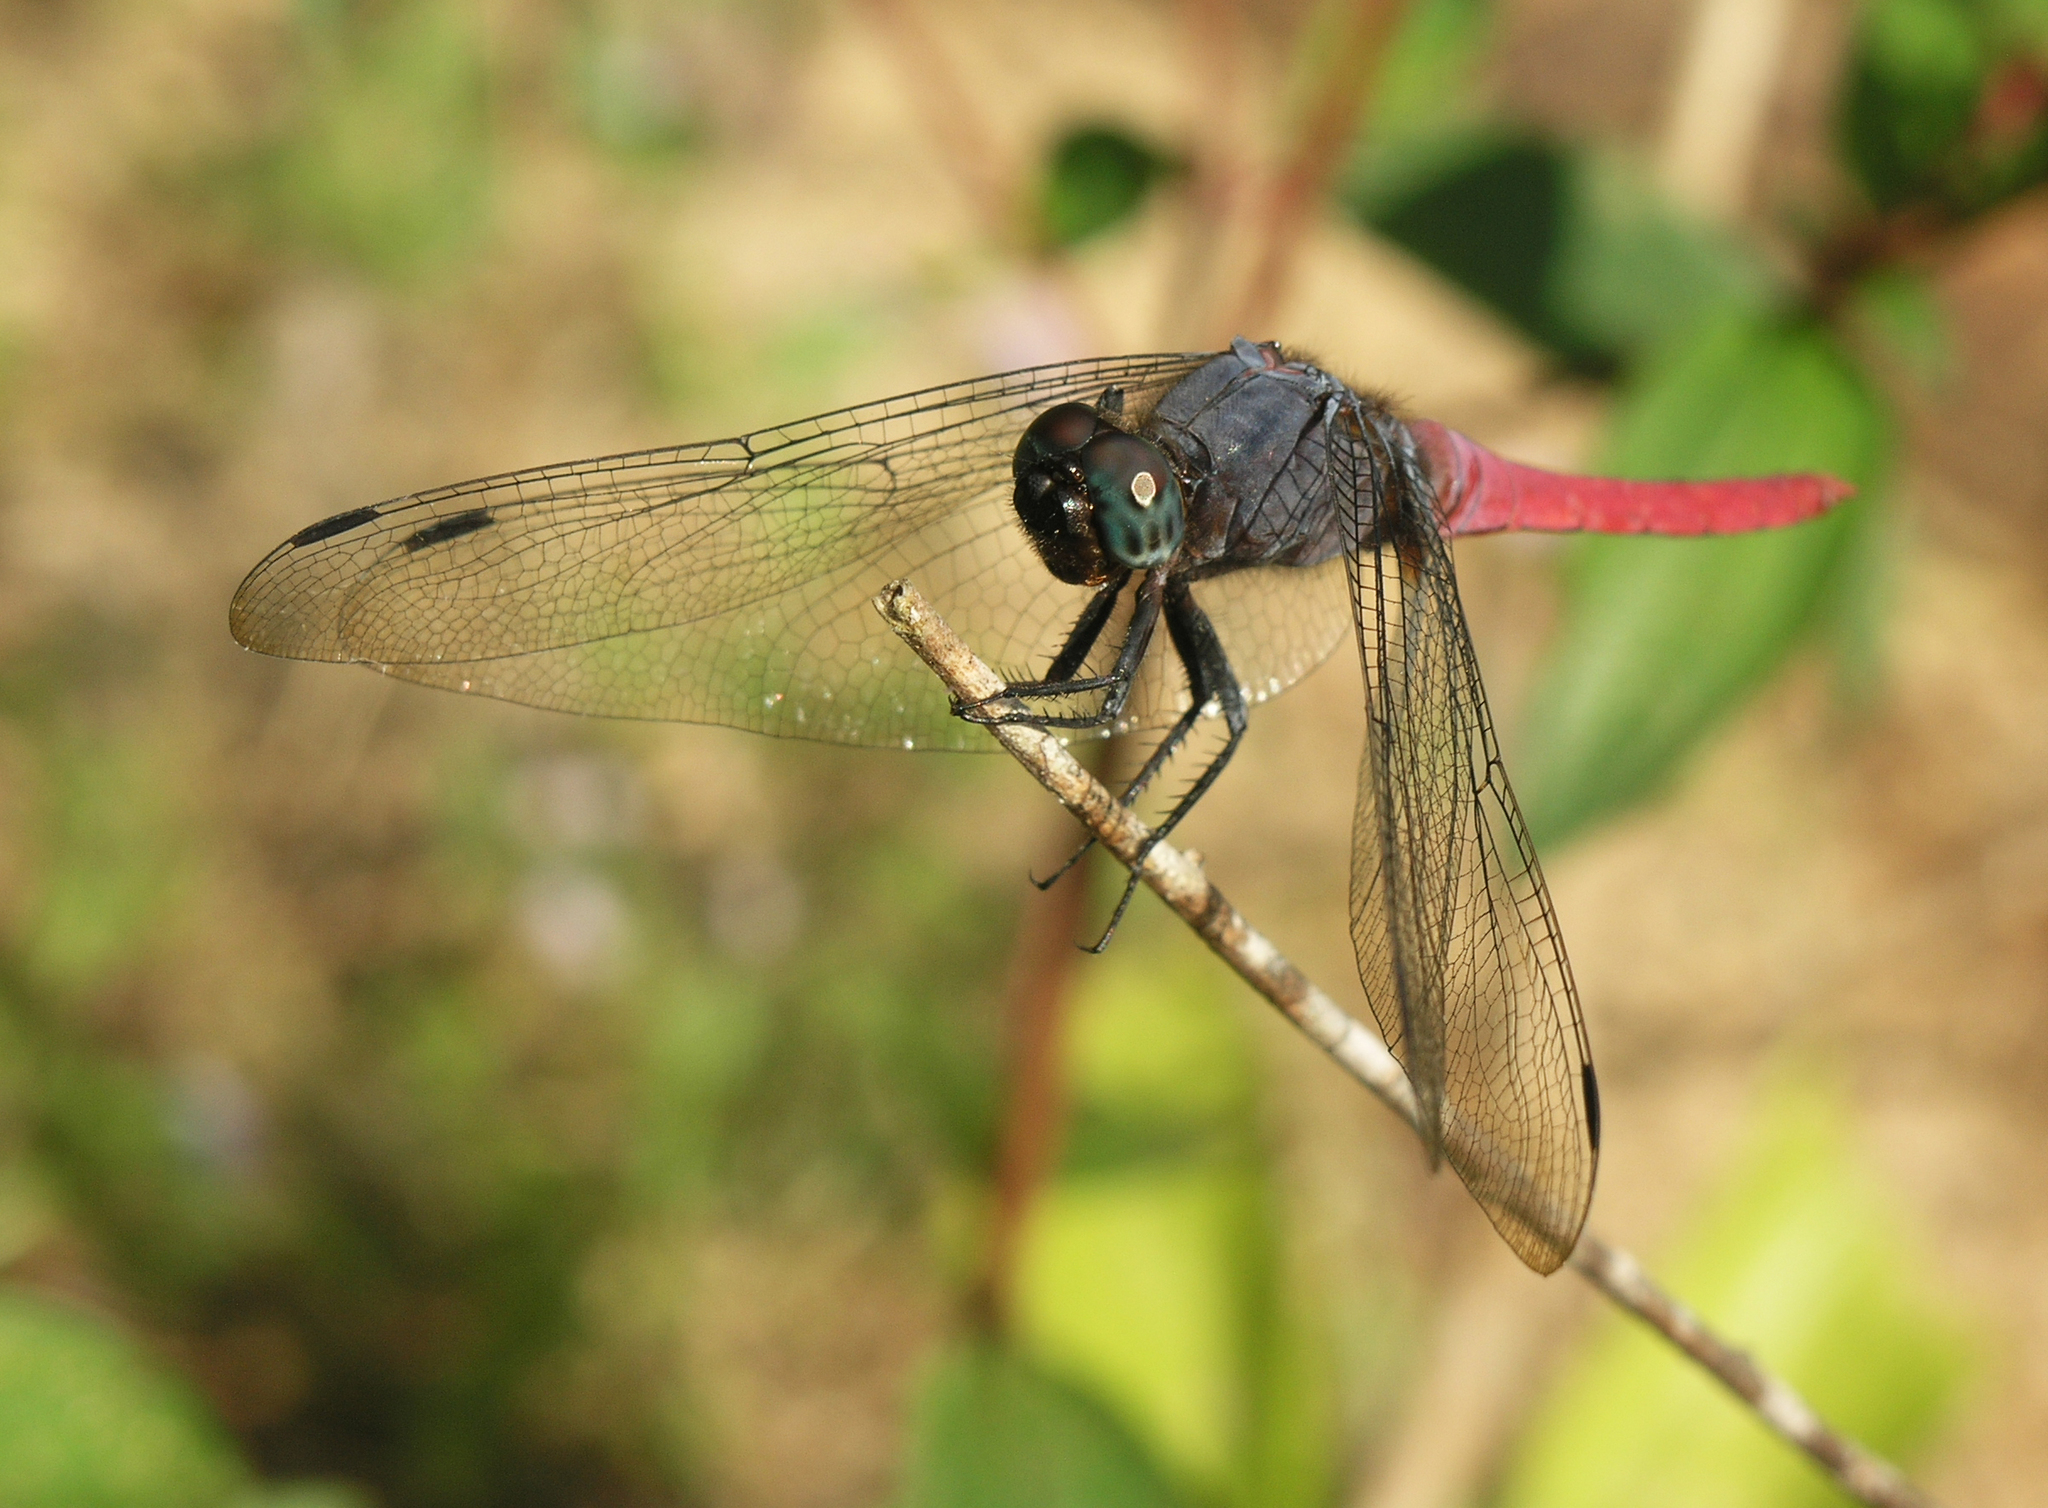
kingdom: Animalia
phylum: Arthropoda
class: Insecta
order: Odonata
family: Libellulidae
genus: Orthetrum
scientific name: Orthetrum pruinosum
